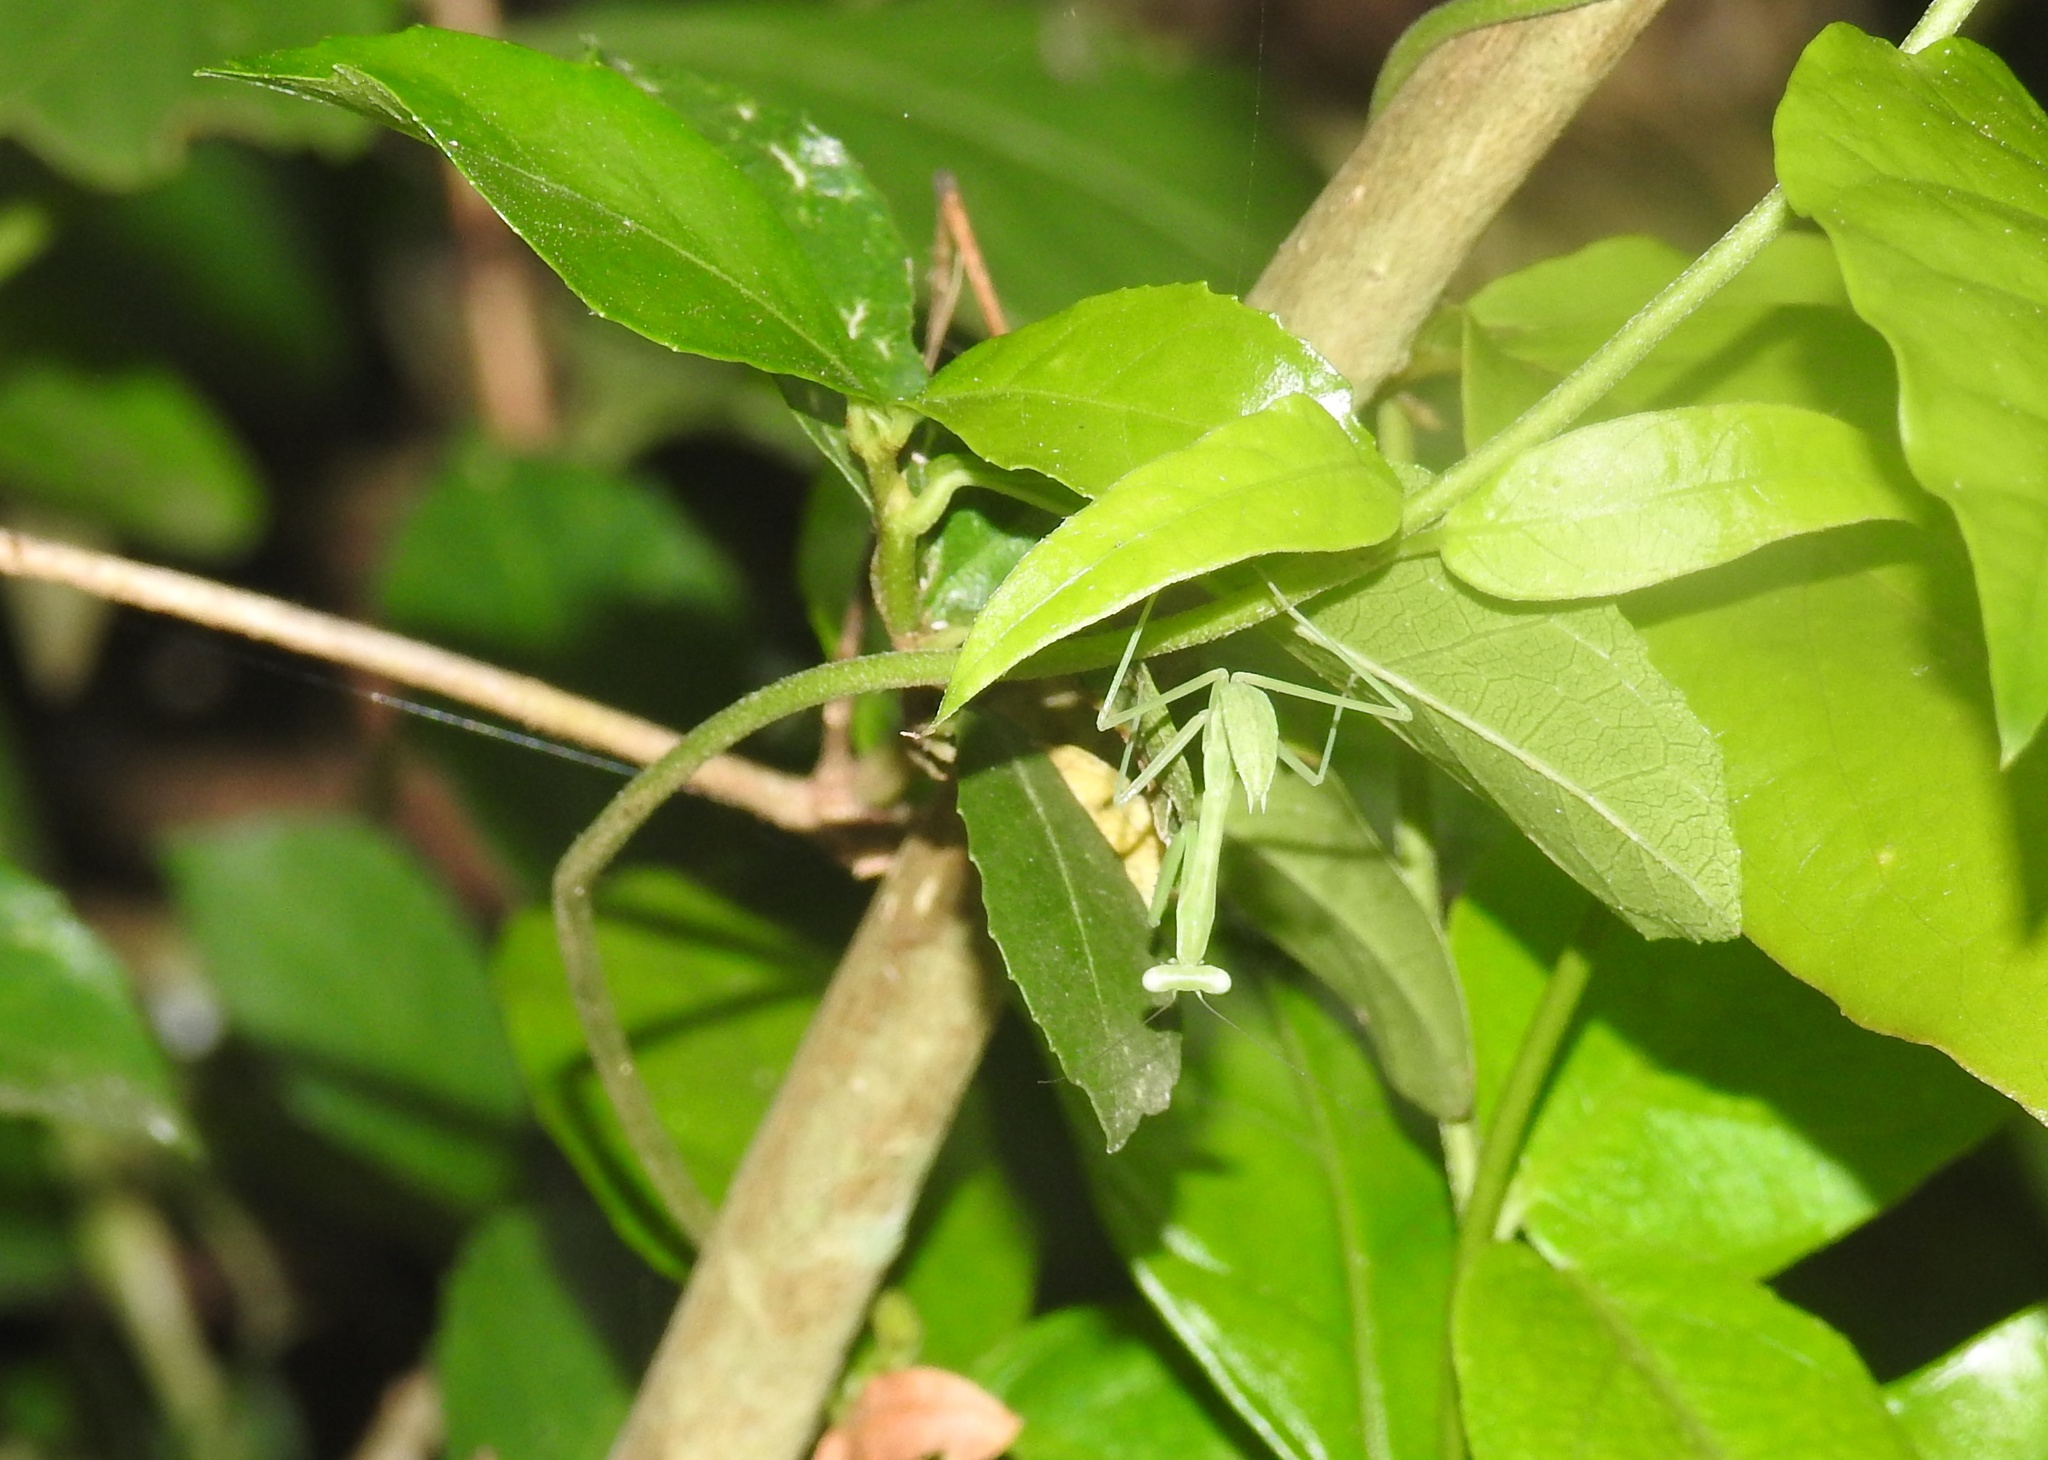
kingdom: Animalia
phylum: Arthropoda
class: Insecta
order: Mantodea
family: Mantidae
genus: Hierodula
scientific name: Hierodula membranacea
